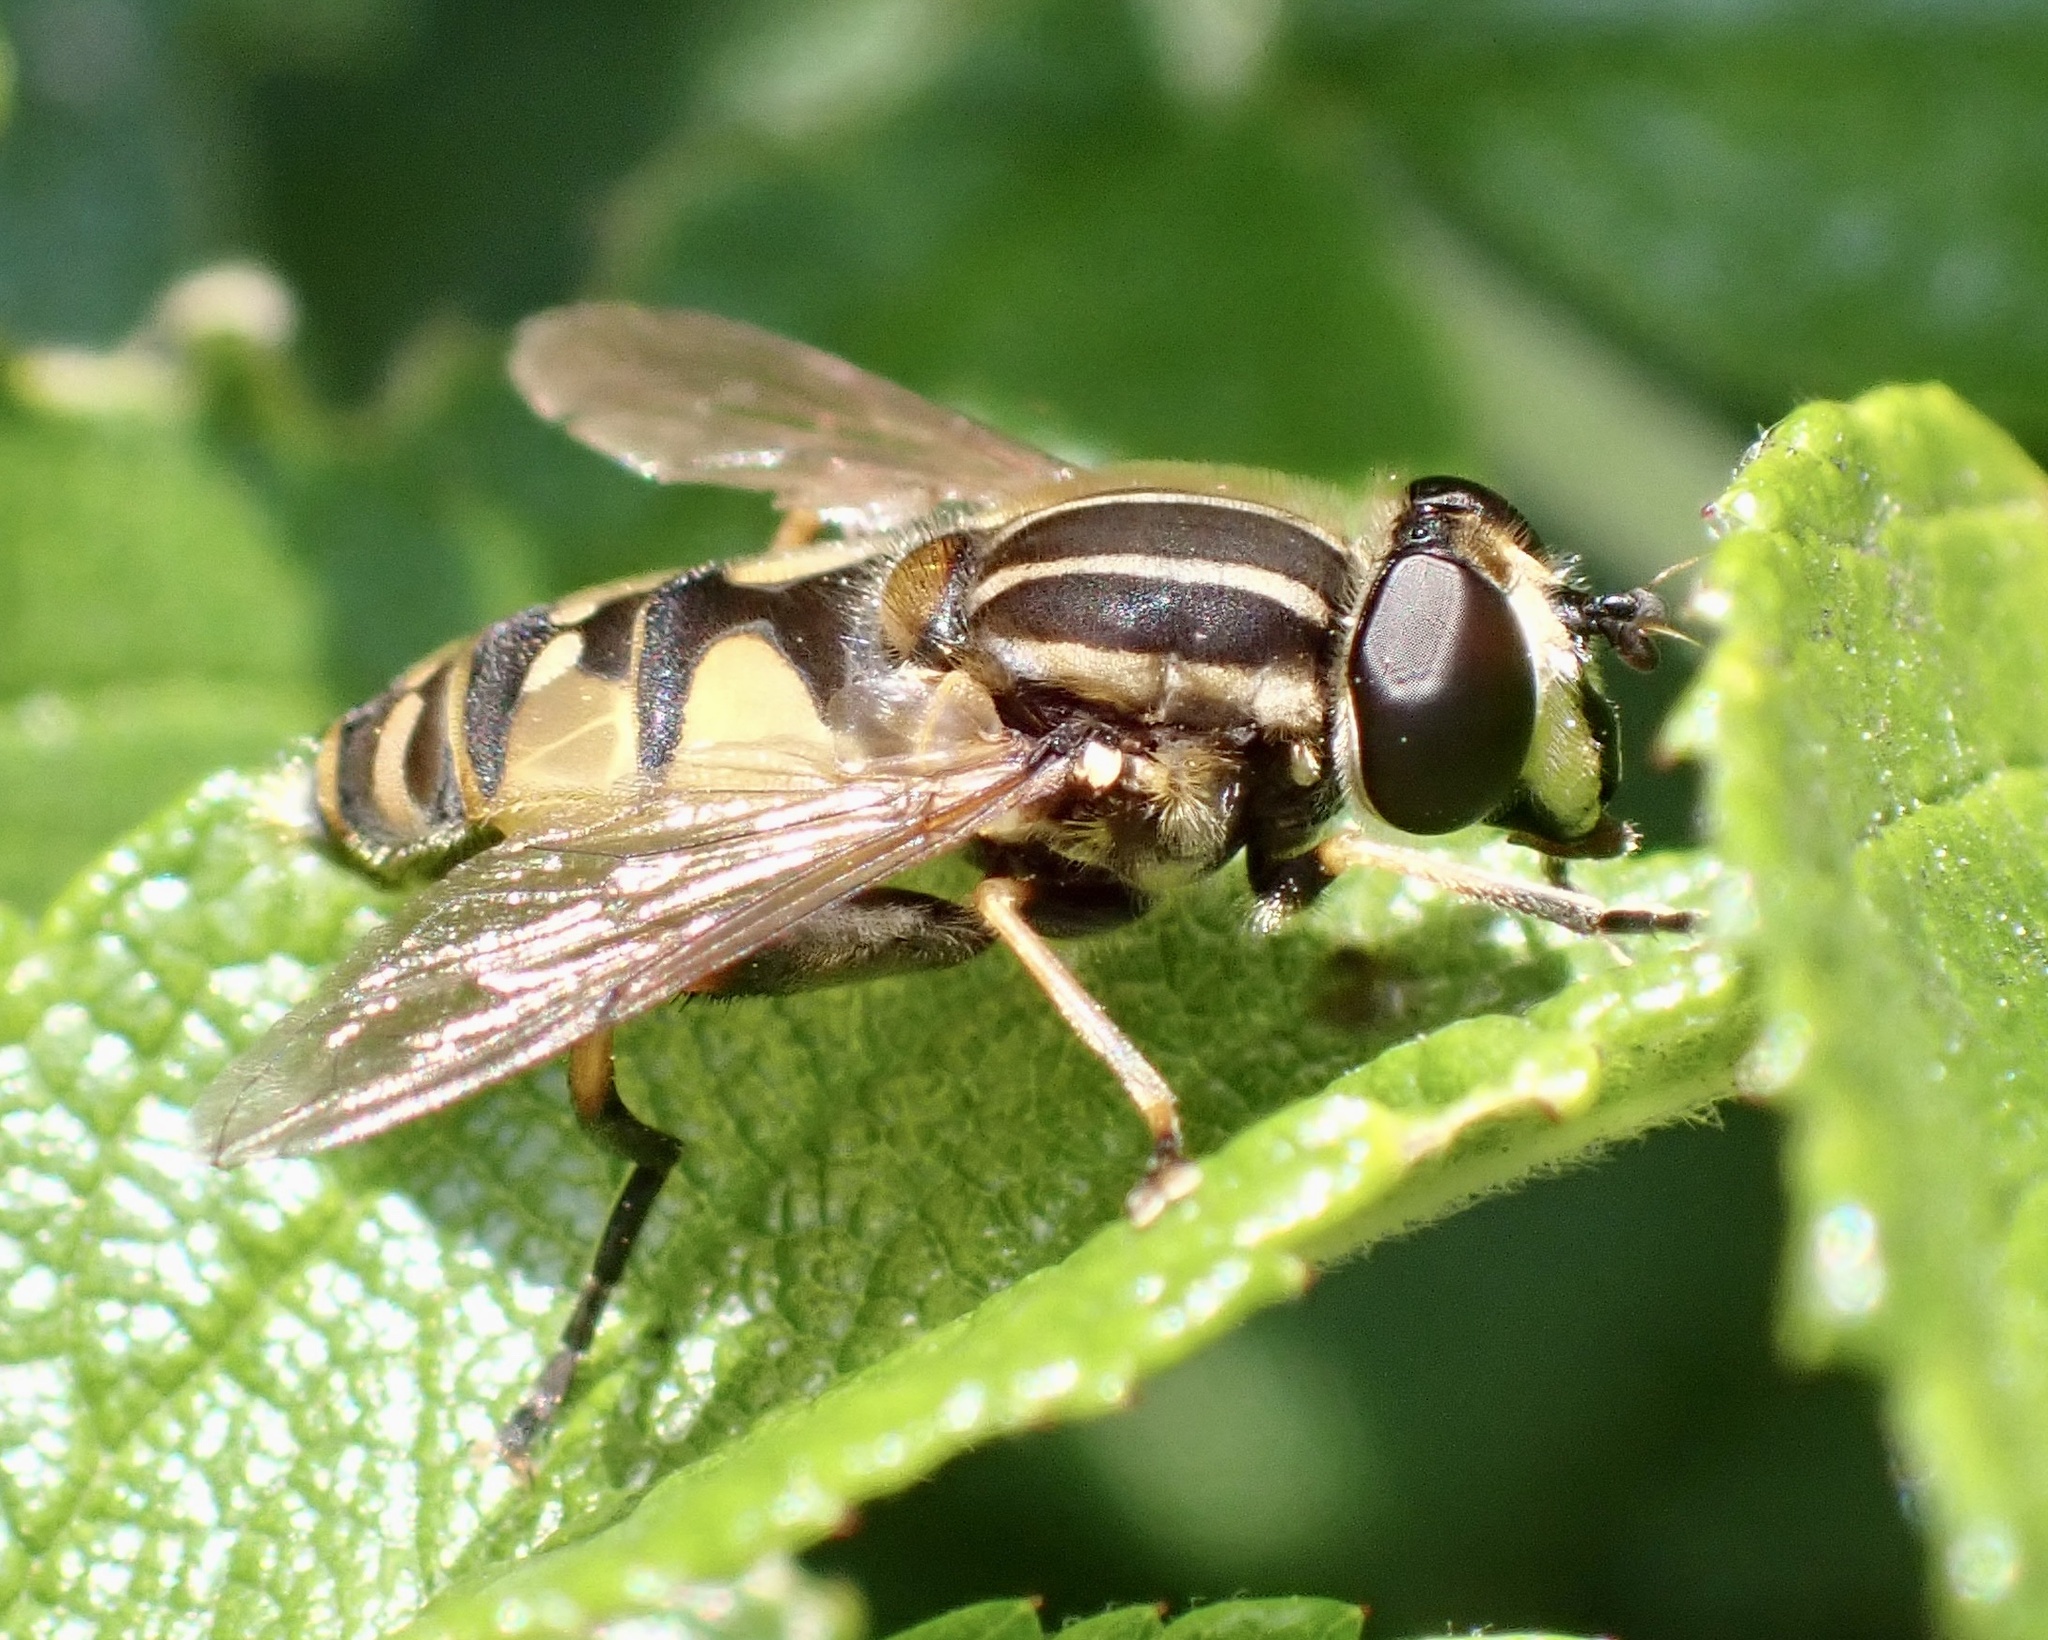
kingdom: Animalia
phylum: Arthropoda
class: Insecta
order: Diptera
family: Syrphidae
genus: Helophilus
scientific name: Helophilus pendulus
